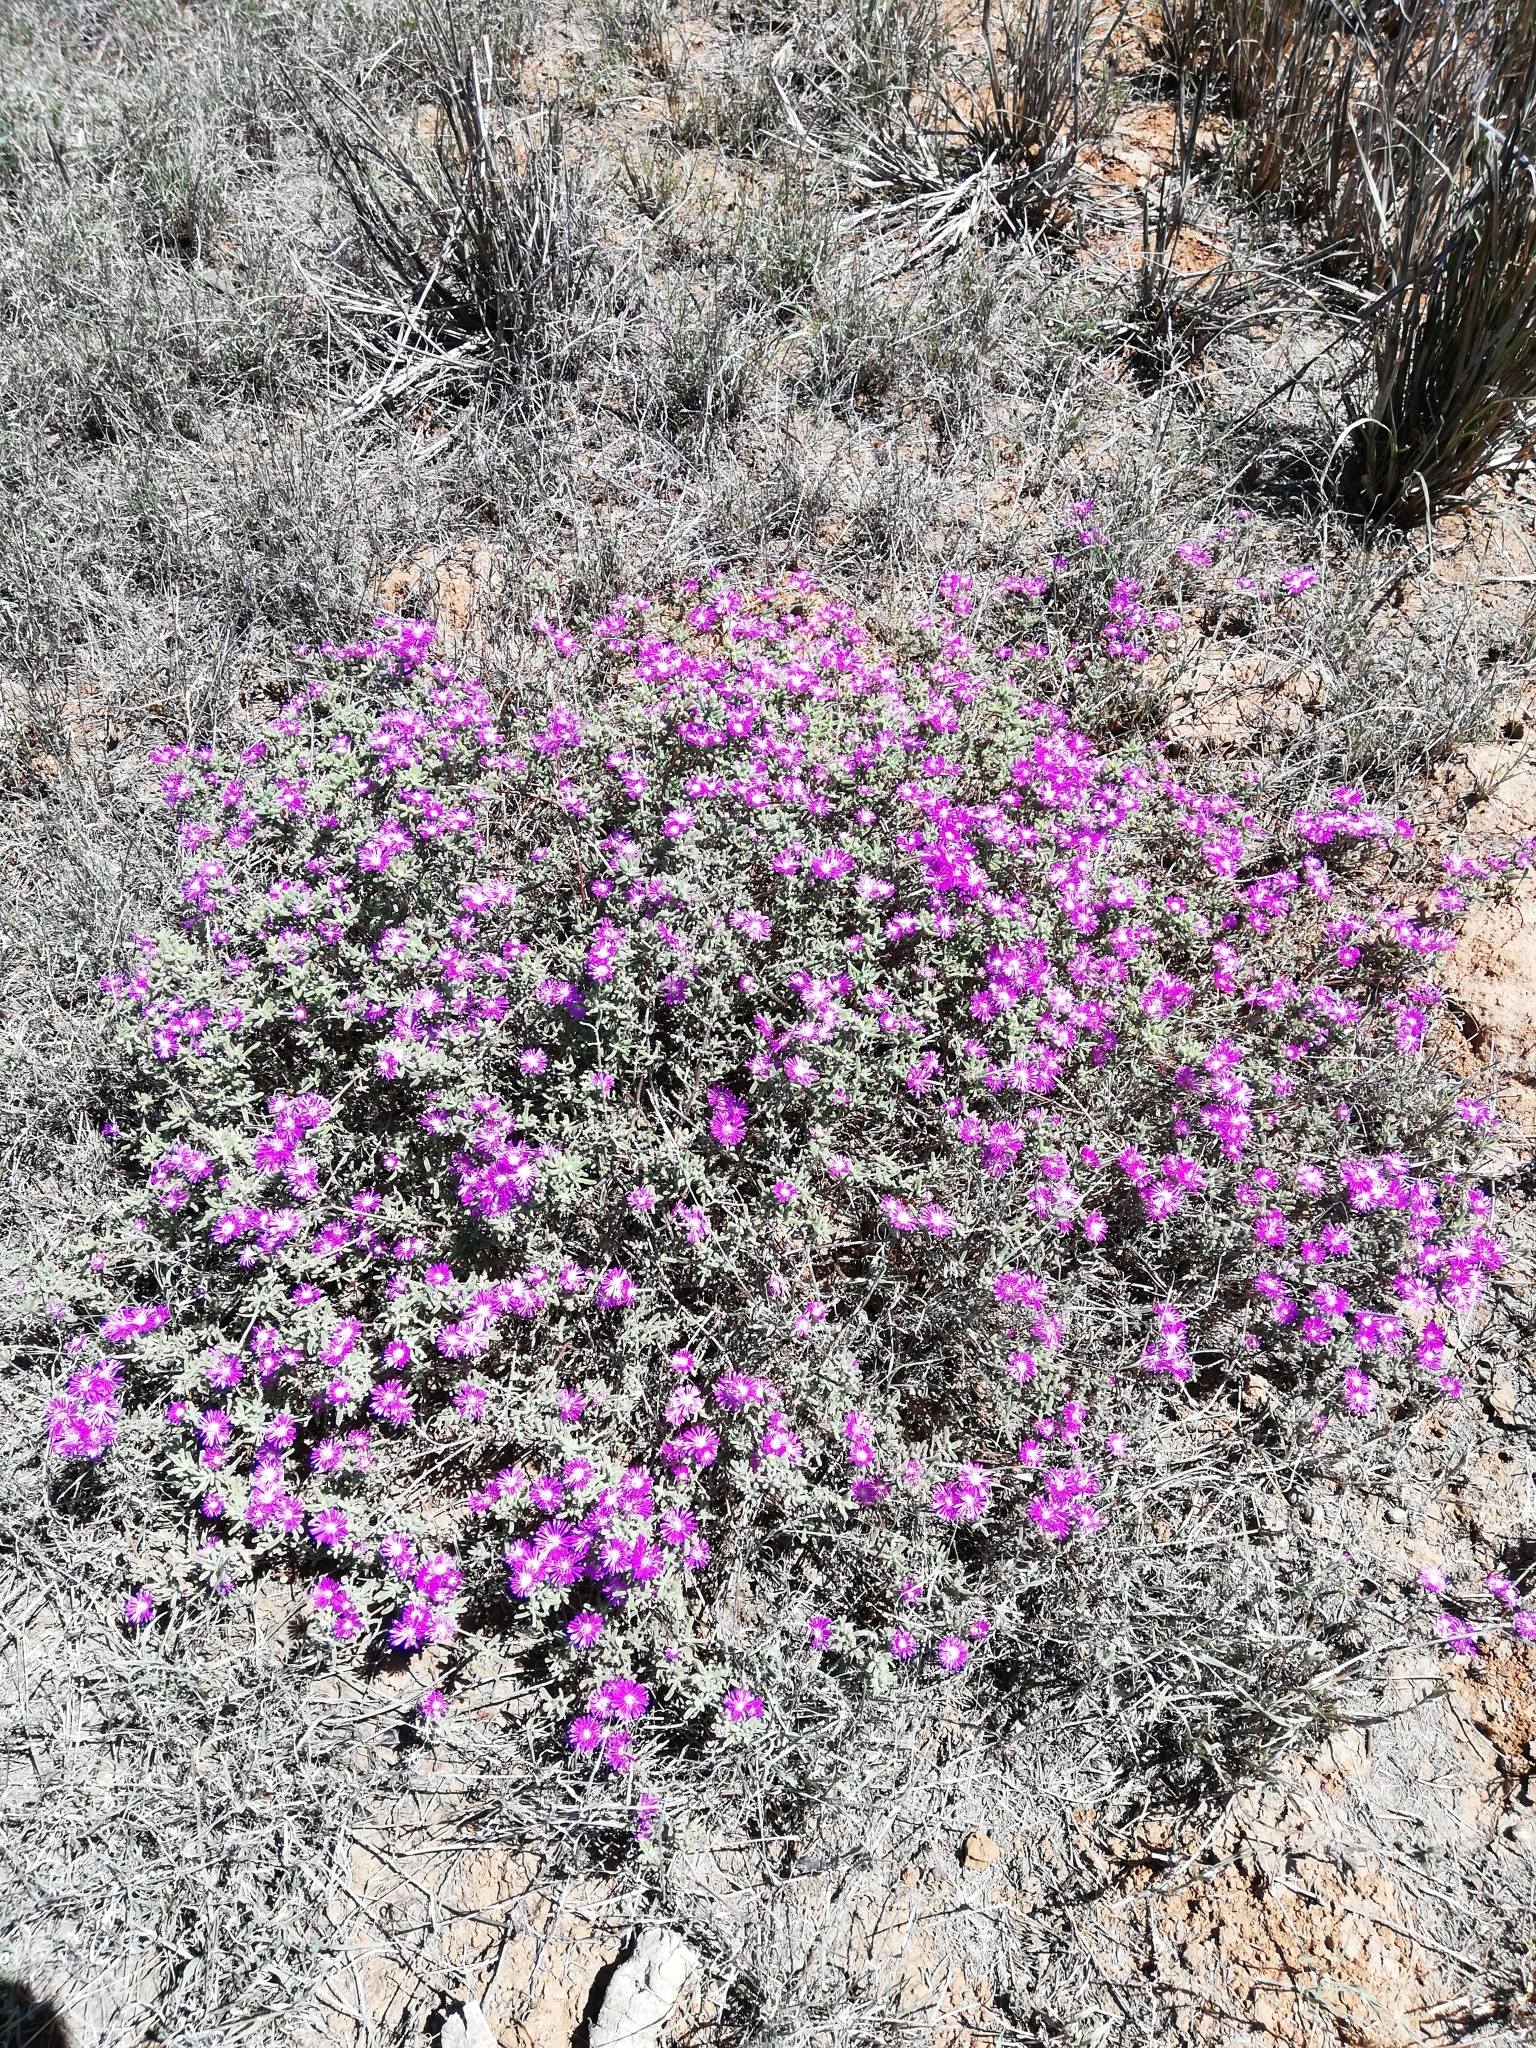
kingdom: Plantae
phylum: Tracheophyta
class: Magnoliopsida
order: Caryophyllales
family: Aizoaceae
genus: Drosanthemum
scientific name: Drosanthemum hispidum
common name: Hairy dewflower
